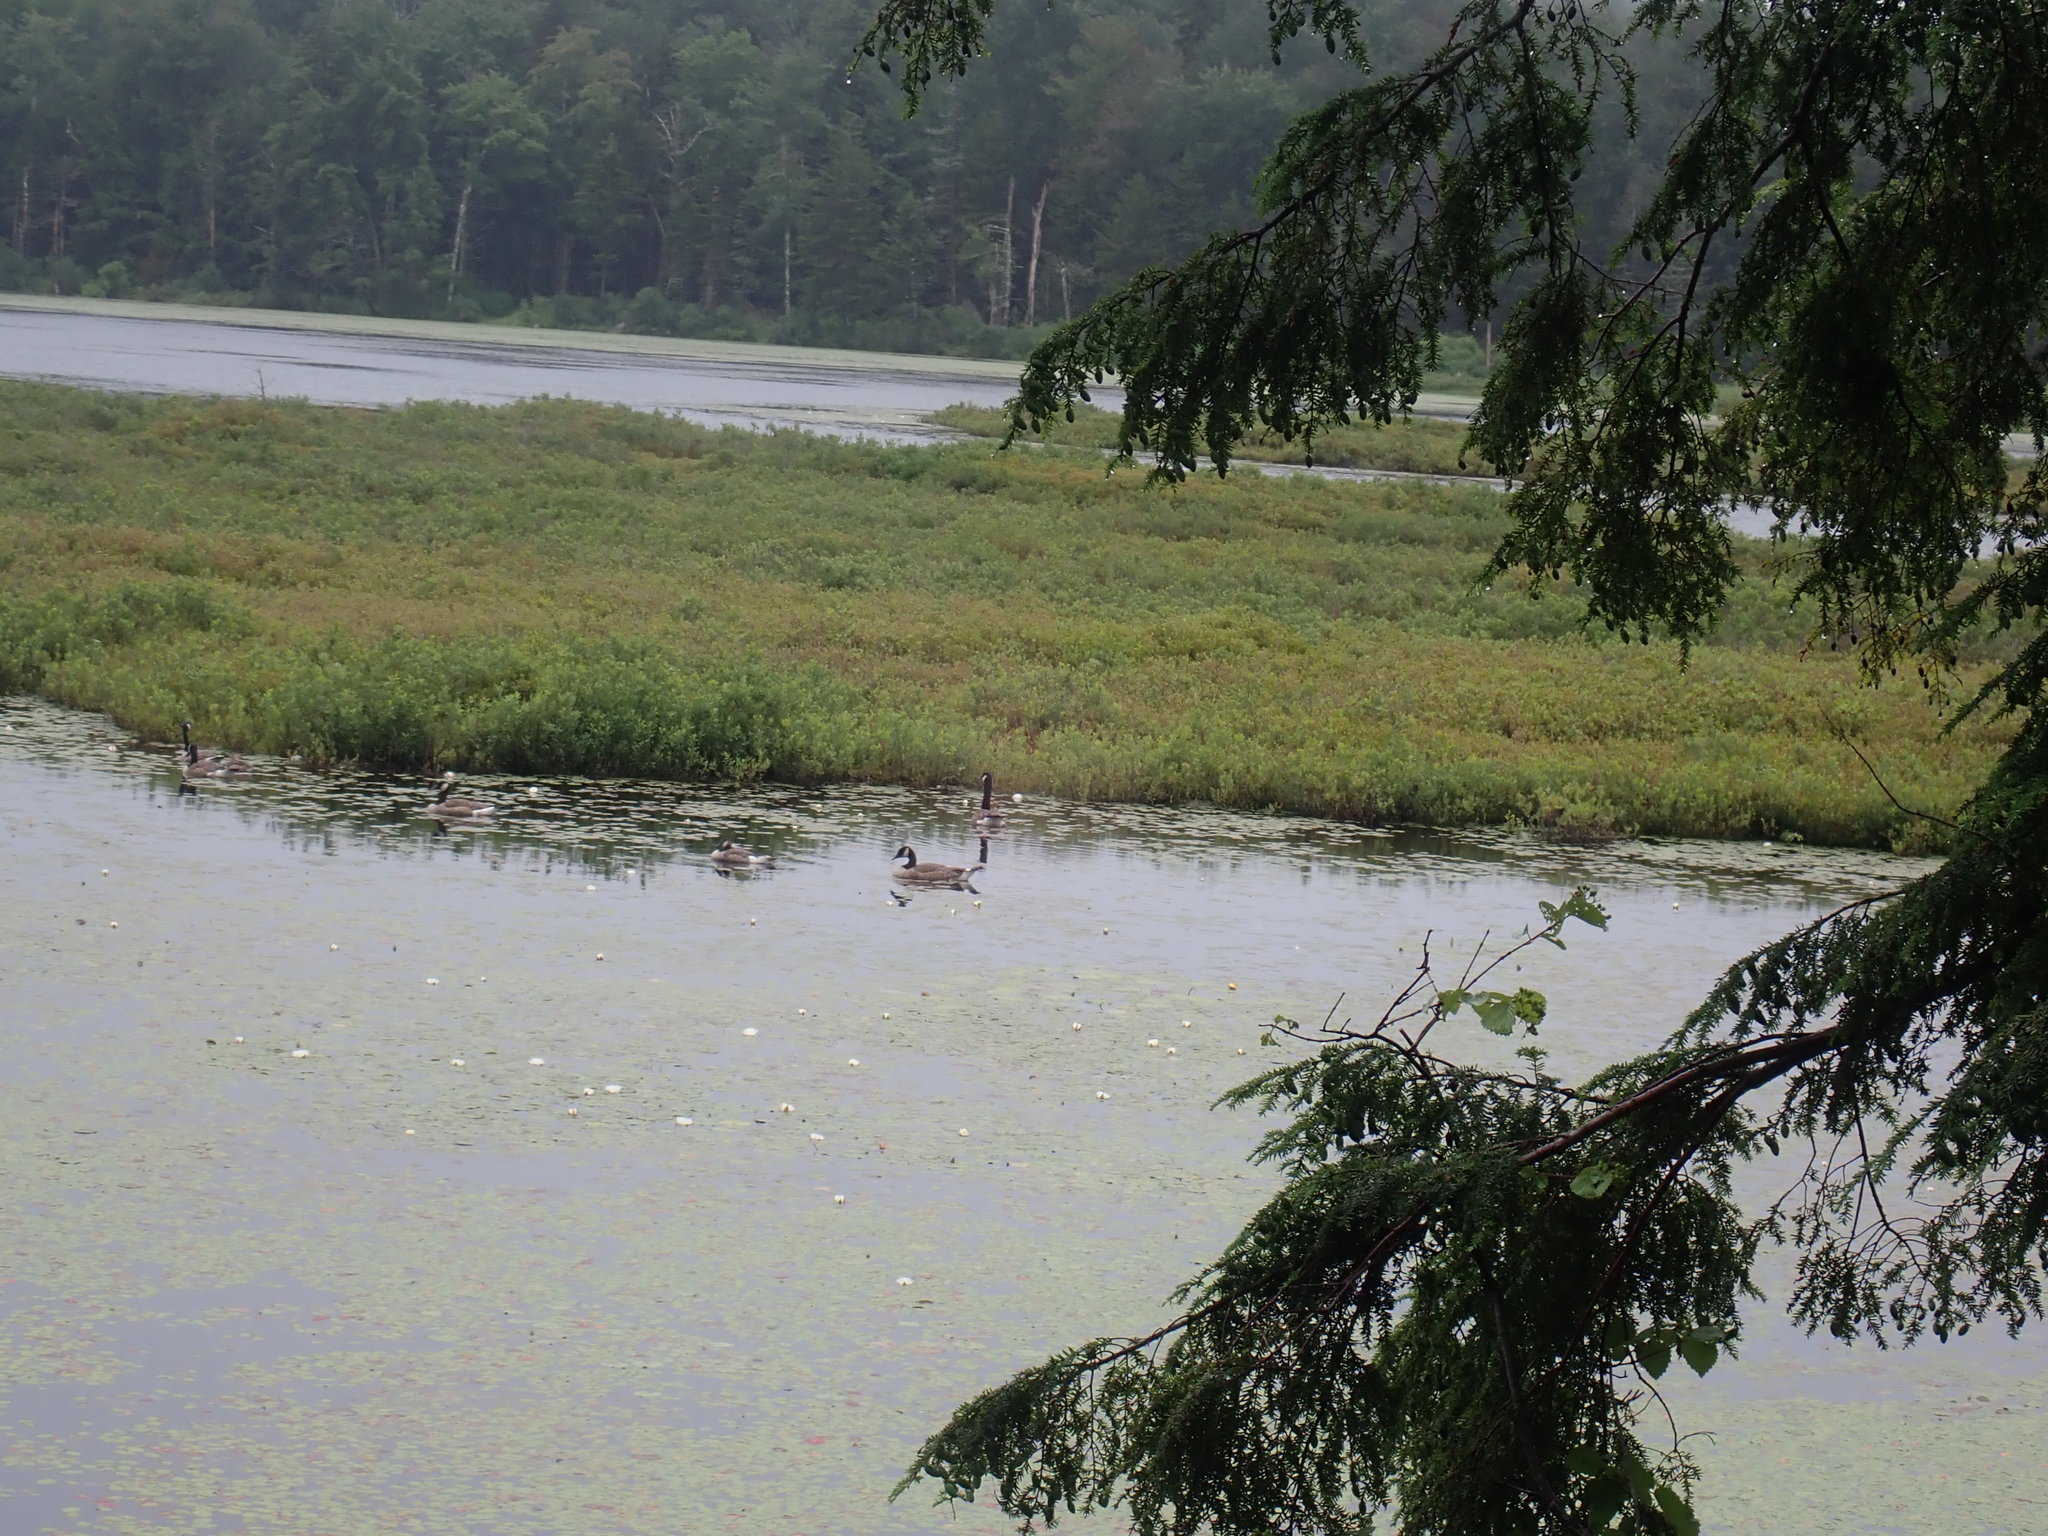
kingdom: Animalia
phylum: Chordata
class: Aves
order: Anseriformes
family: Anatidae
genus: Branta
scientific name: Branta canadensis
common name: Canada goose
